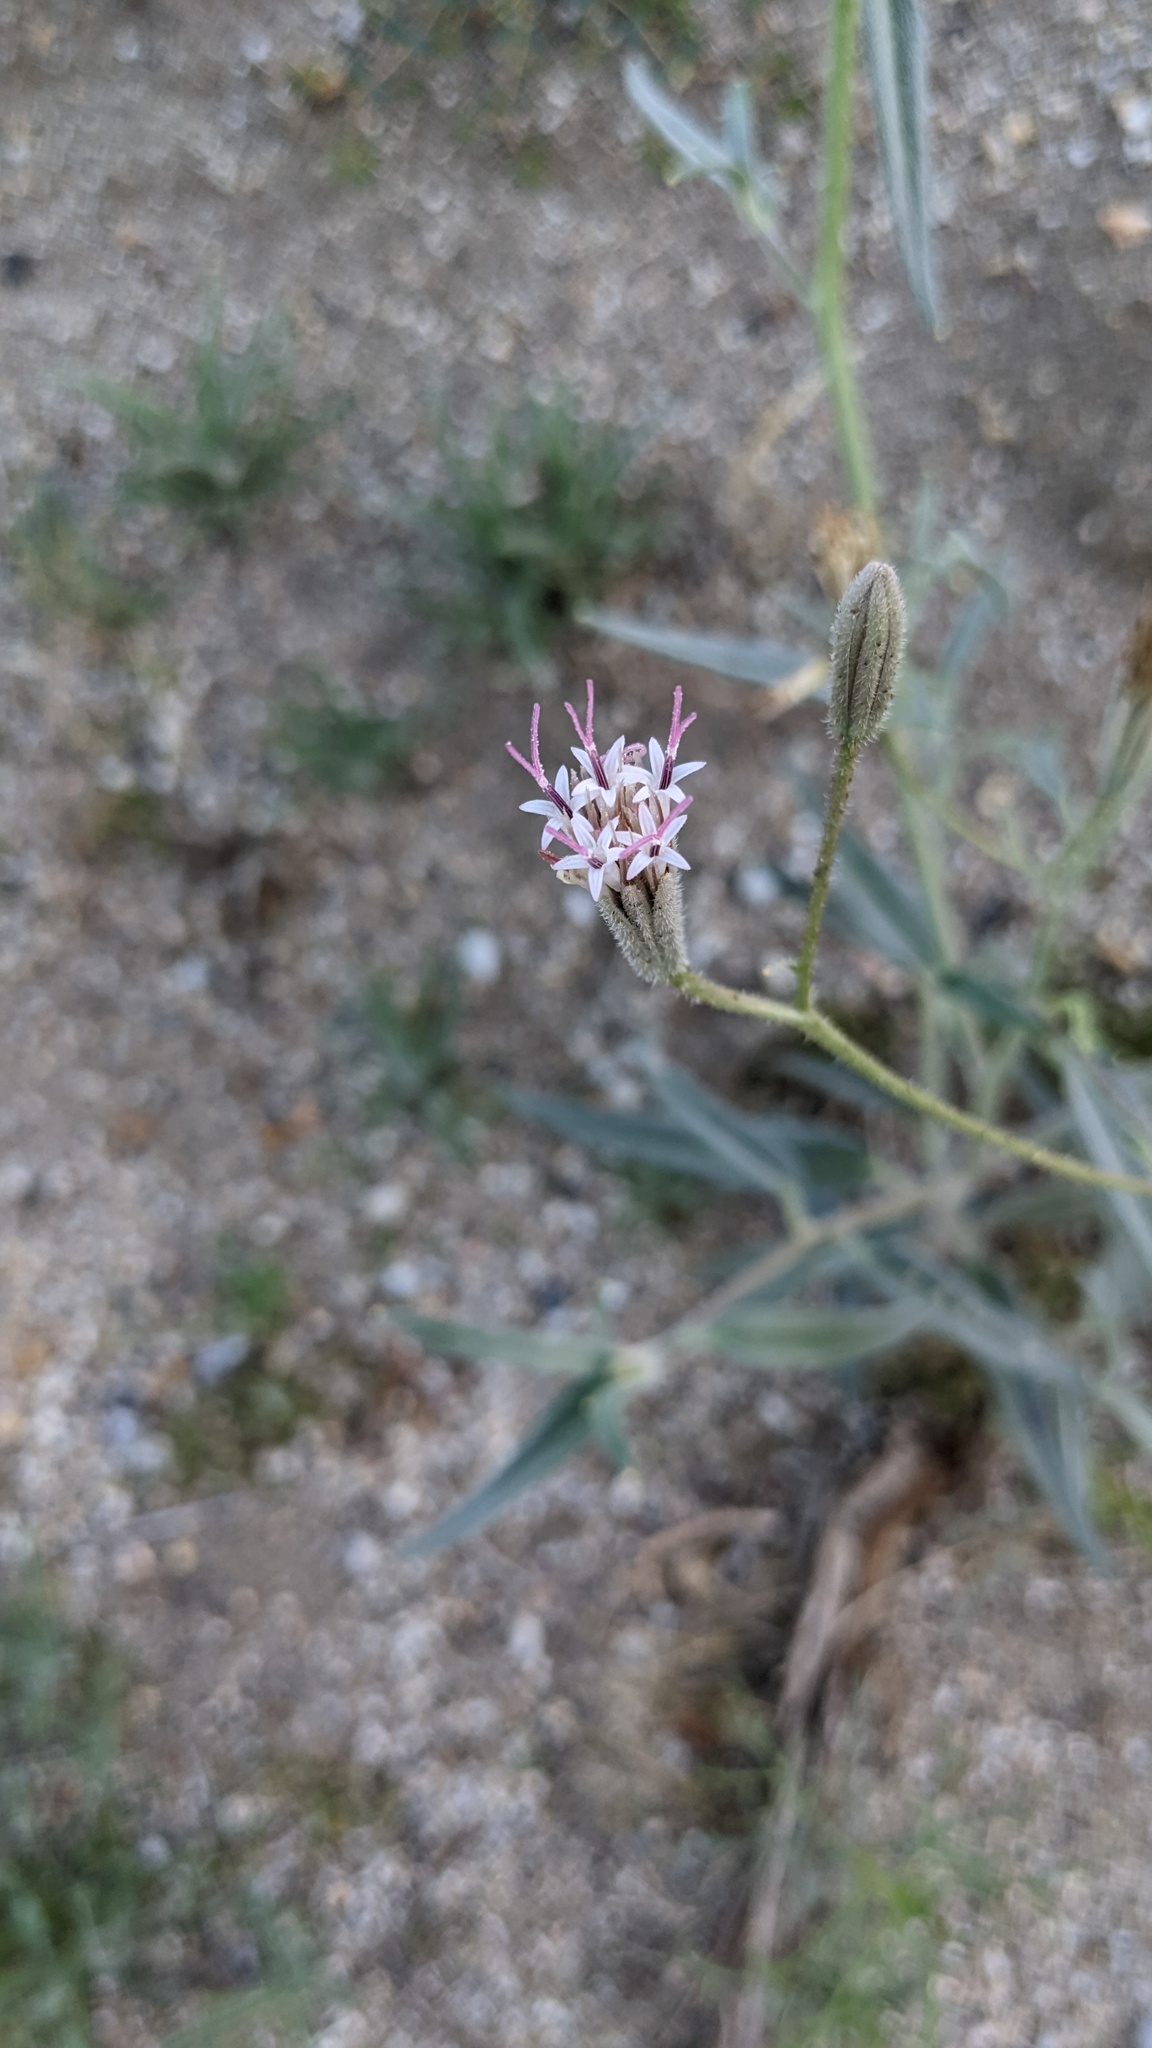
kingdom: Plantae
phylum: Tracheophyta
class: Magnoliopsida
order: Asterales
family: Asteraceae
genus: Palafoxia
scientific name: Palafoxia arida
